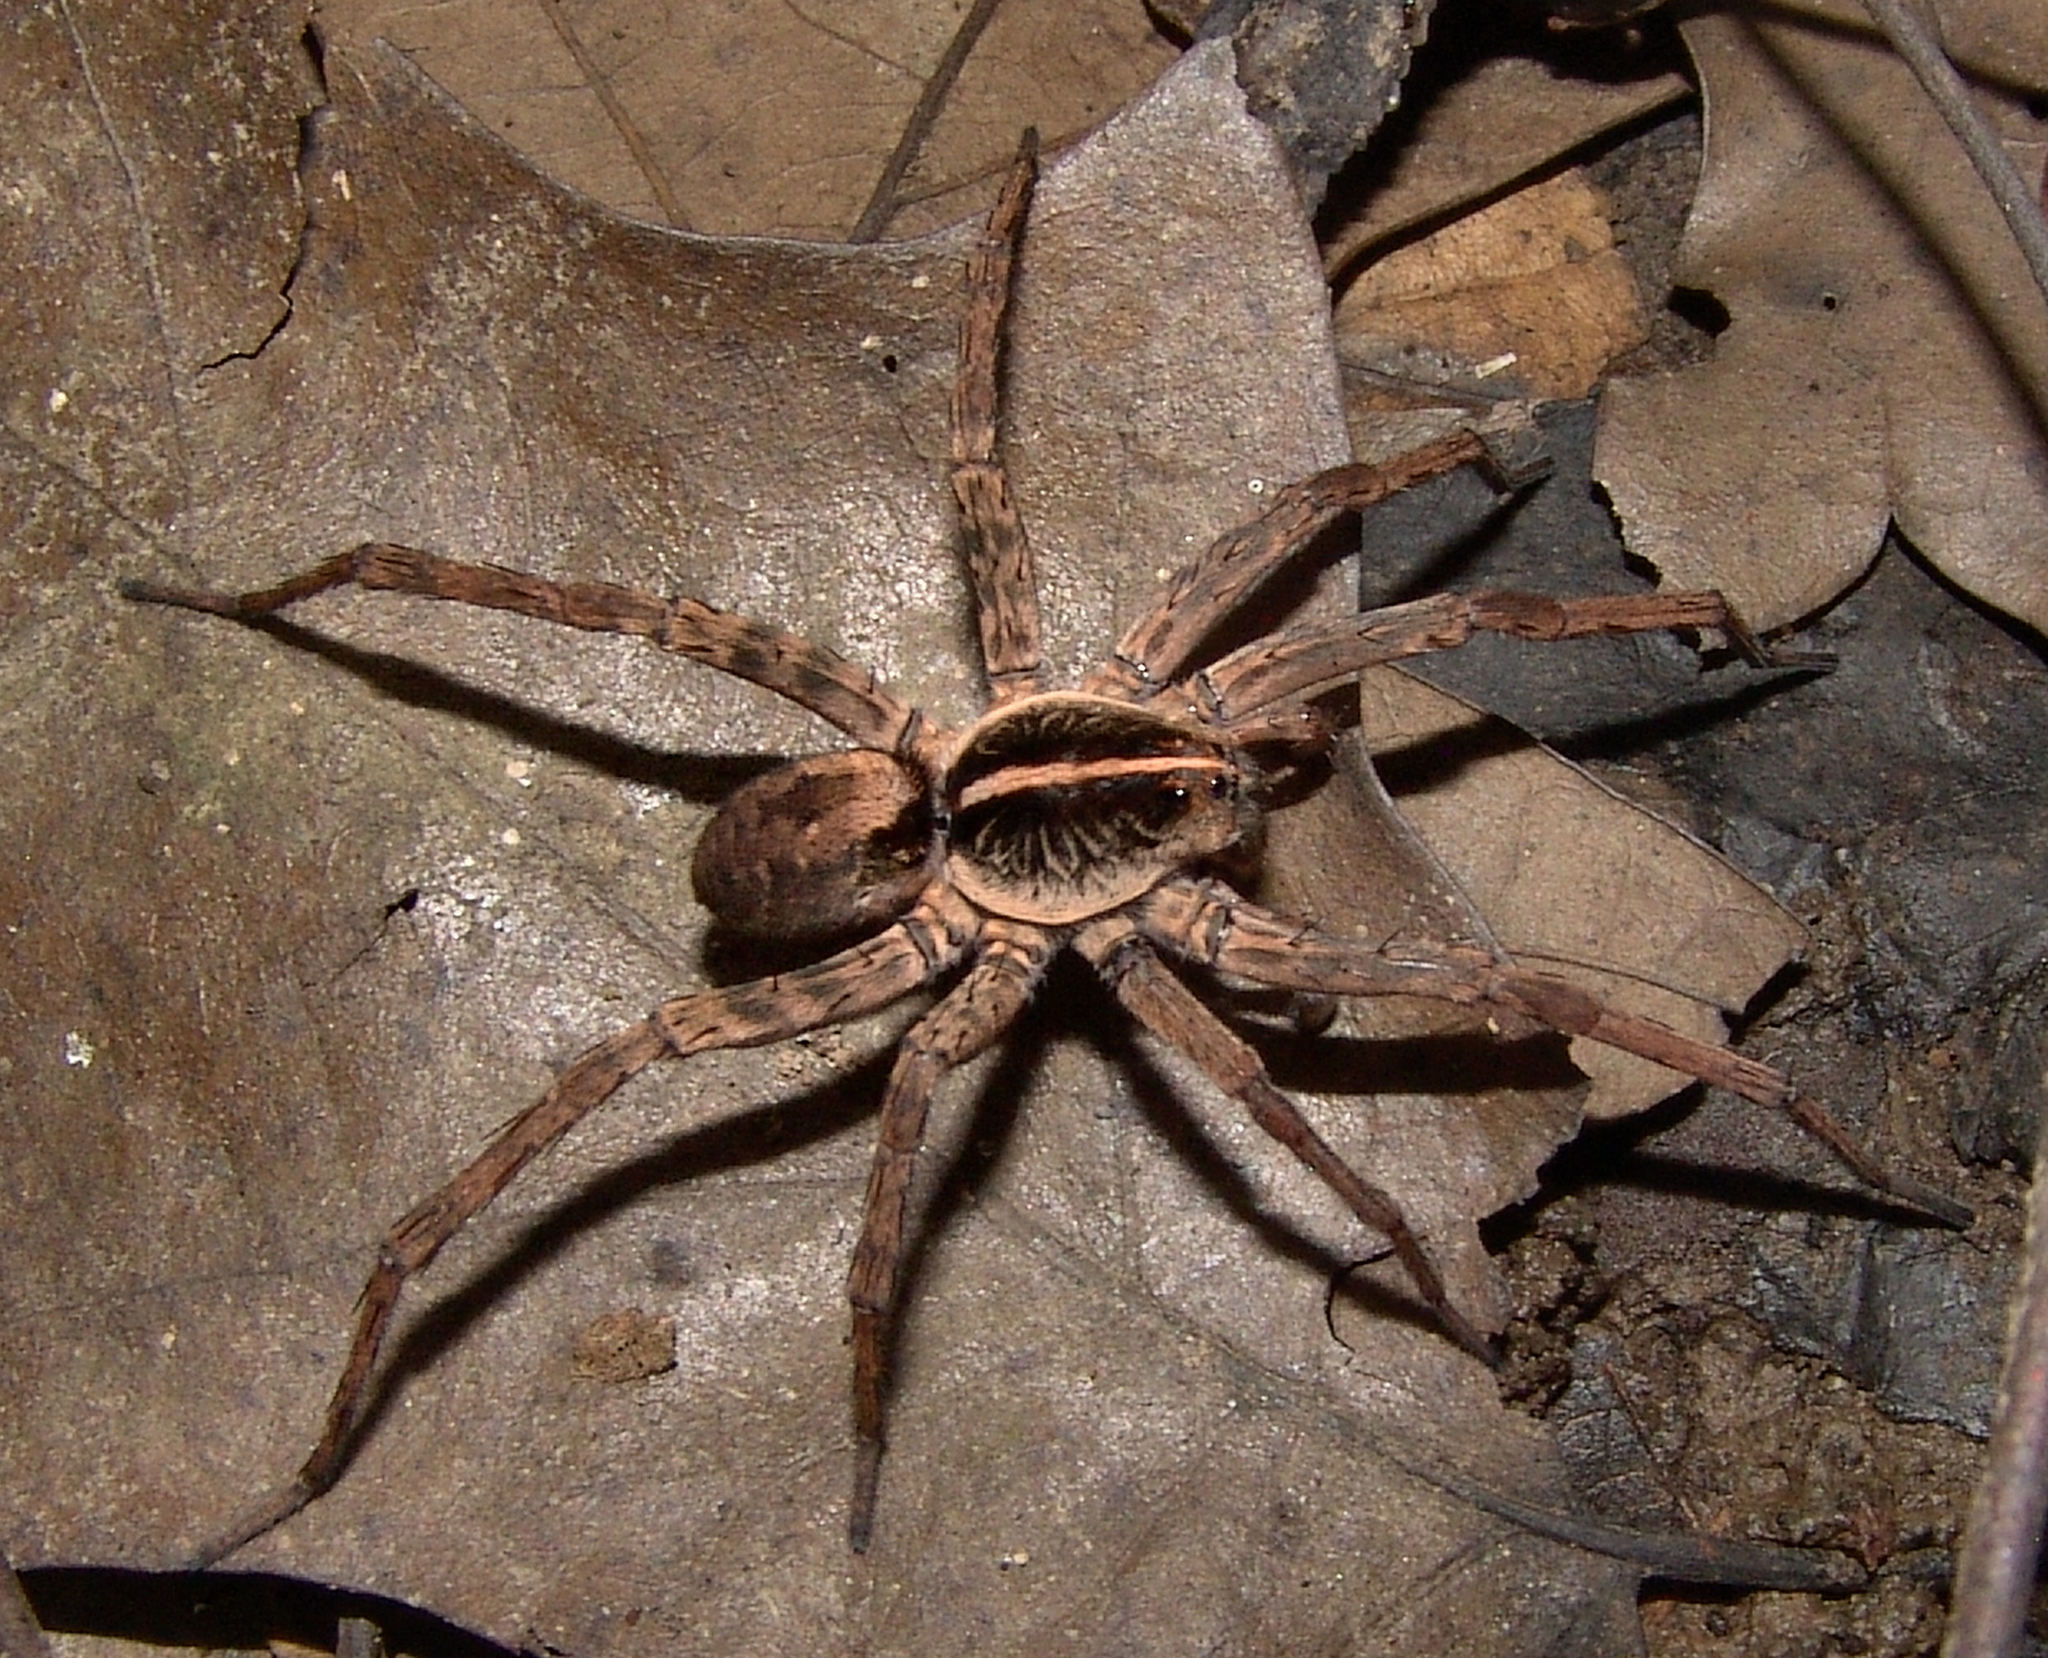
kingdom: Animalia
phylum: Arthropoda
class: Arachnida
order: Araneae
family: Lycosidae
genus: Tigrosa
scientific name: Tigrosa georgicola
